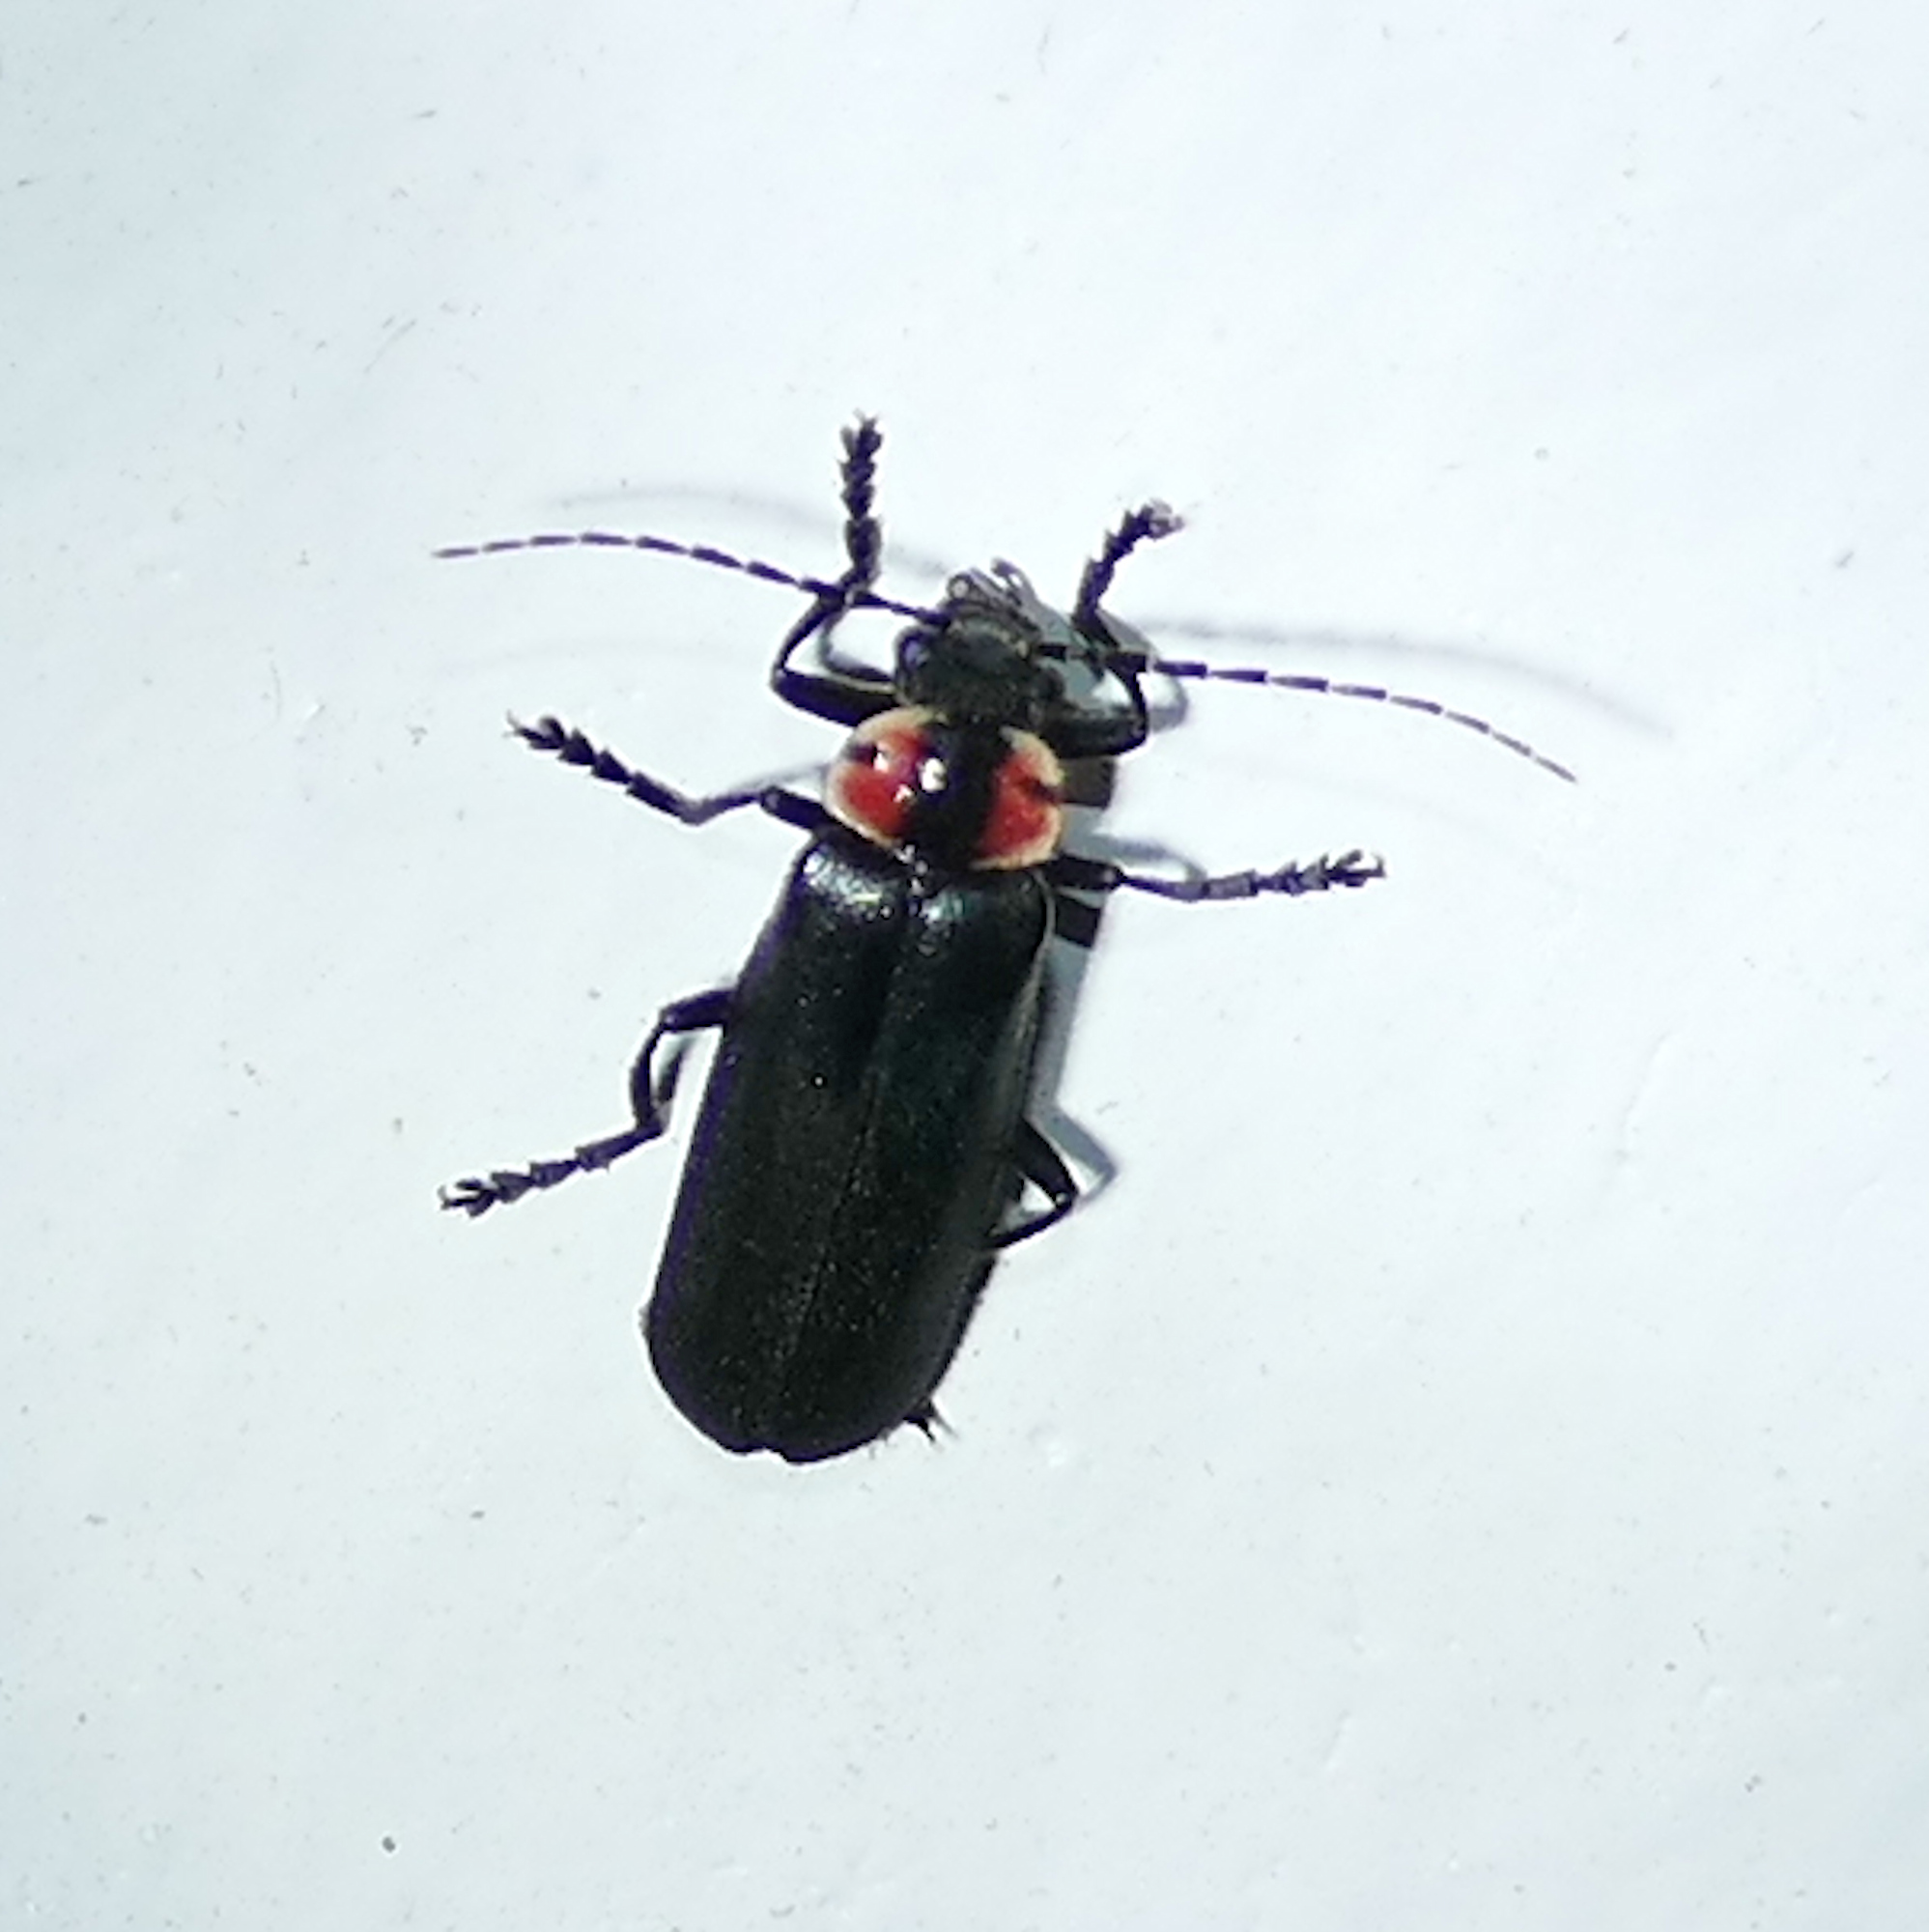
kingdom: Animalia
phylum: Arthropoda
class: Insecta
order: Coleoptera
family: Cantharidae
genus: Discodon
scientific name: Discodon bipunctatum
